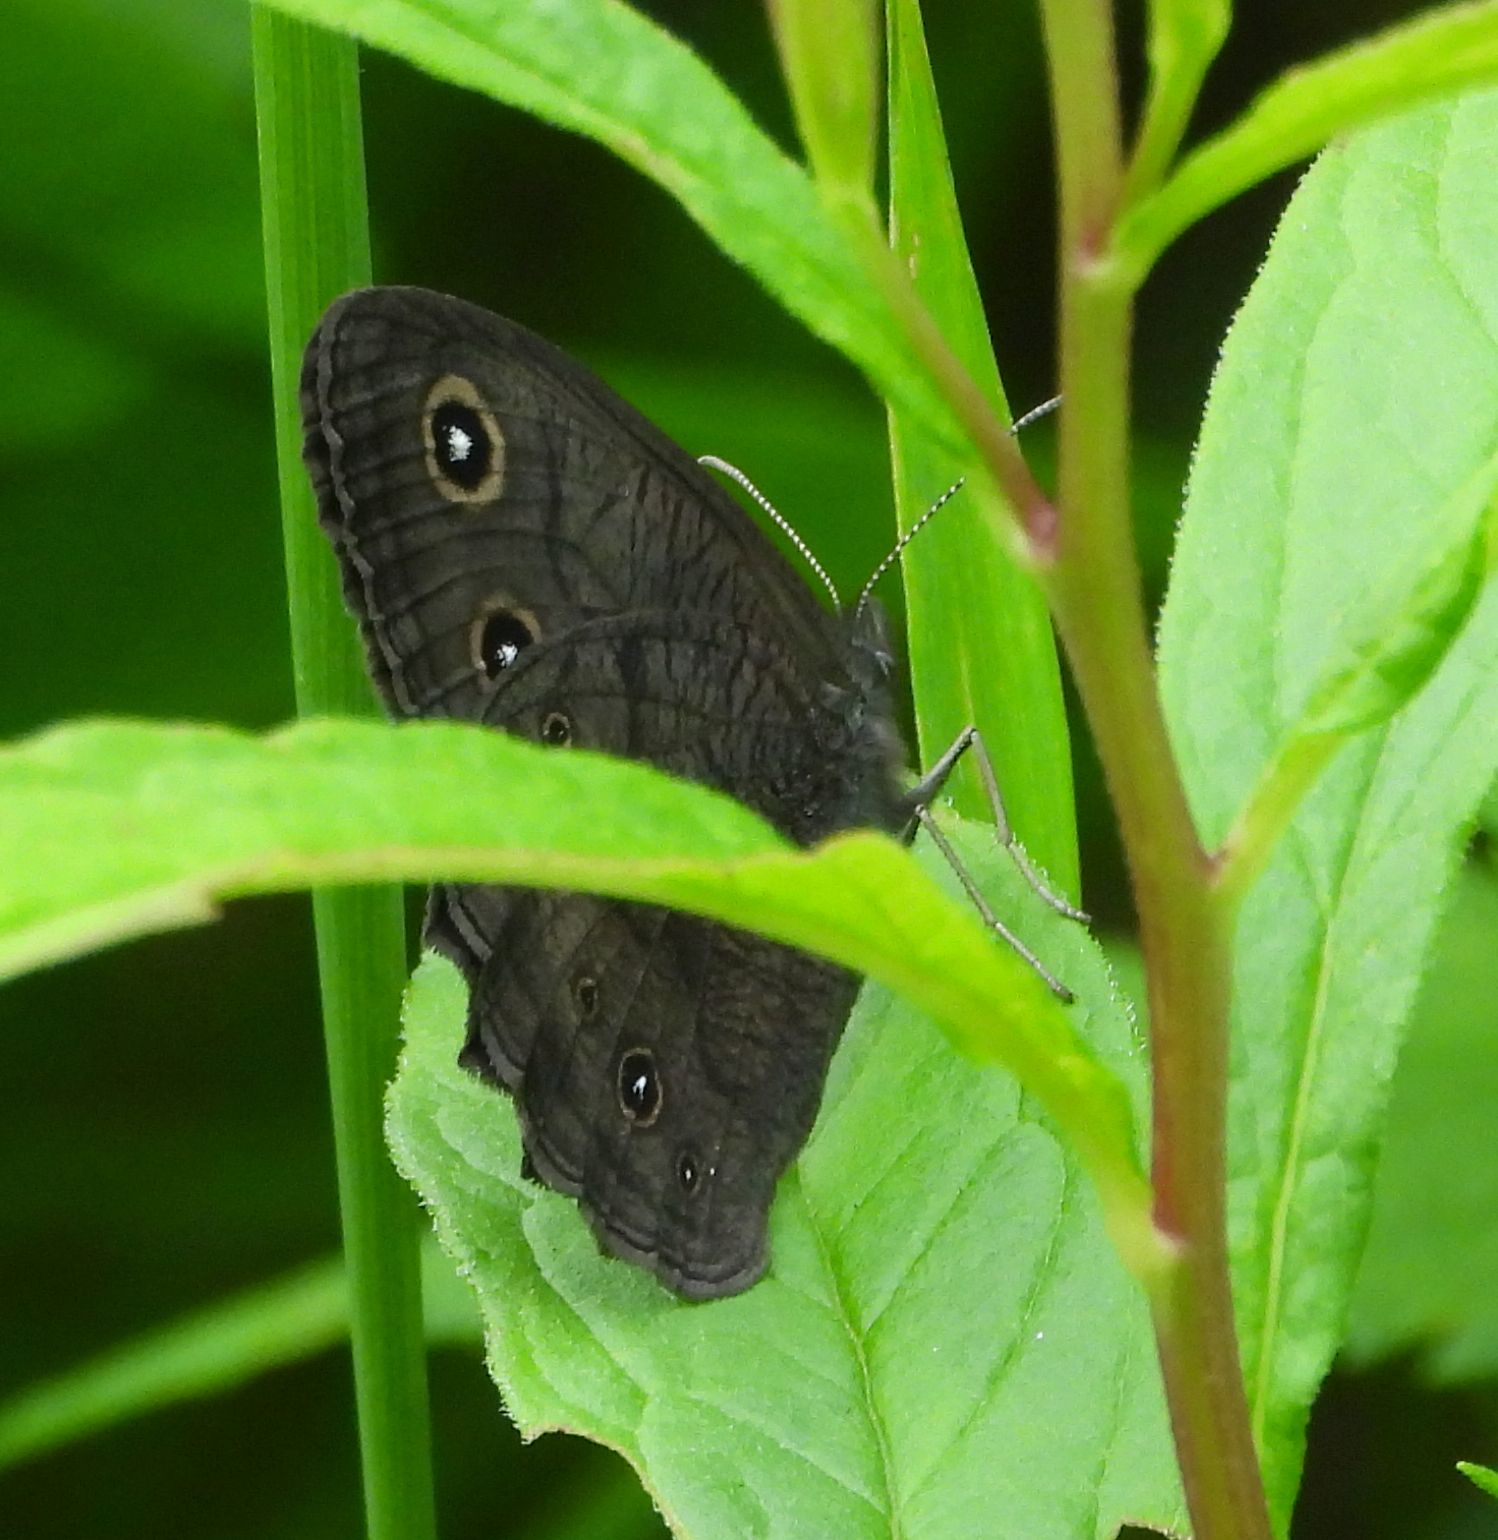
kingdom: Animalia
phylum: Arthropoda
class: Insecta
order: Lepidoptera
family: Nymphalidae
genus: Cercyonis
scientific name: Cercyonis pegala
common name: Common wood-nymph
